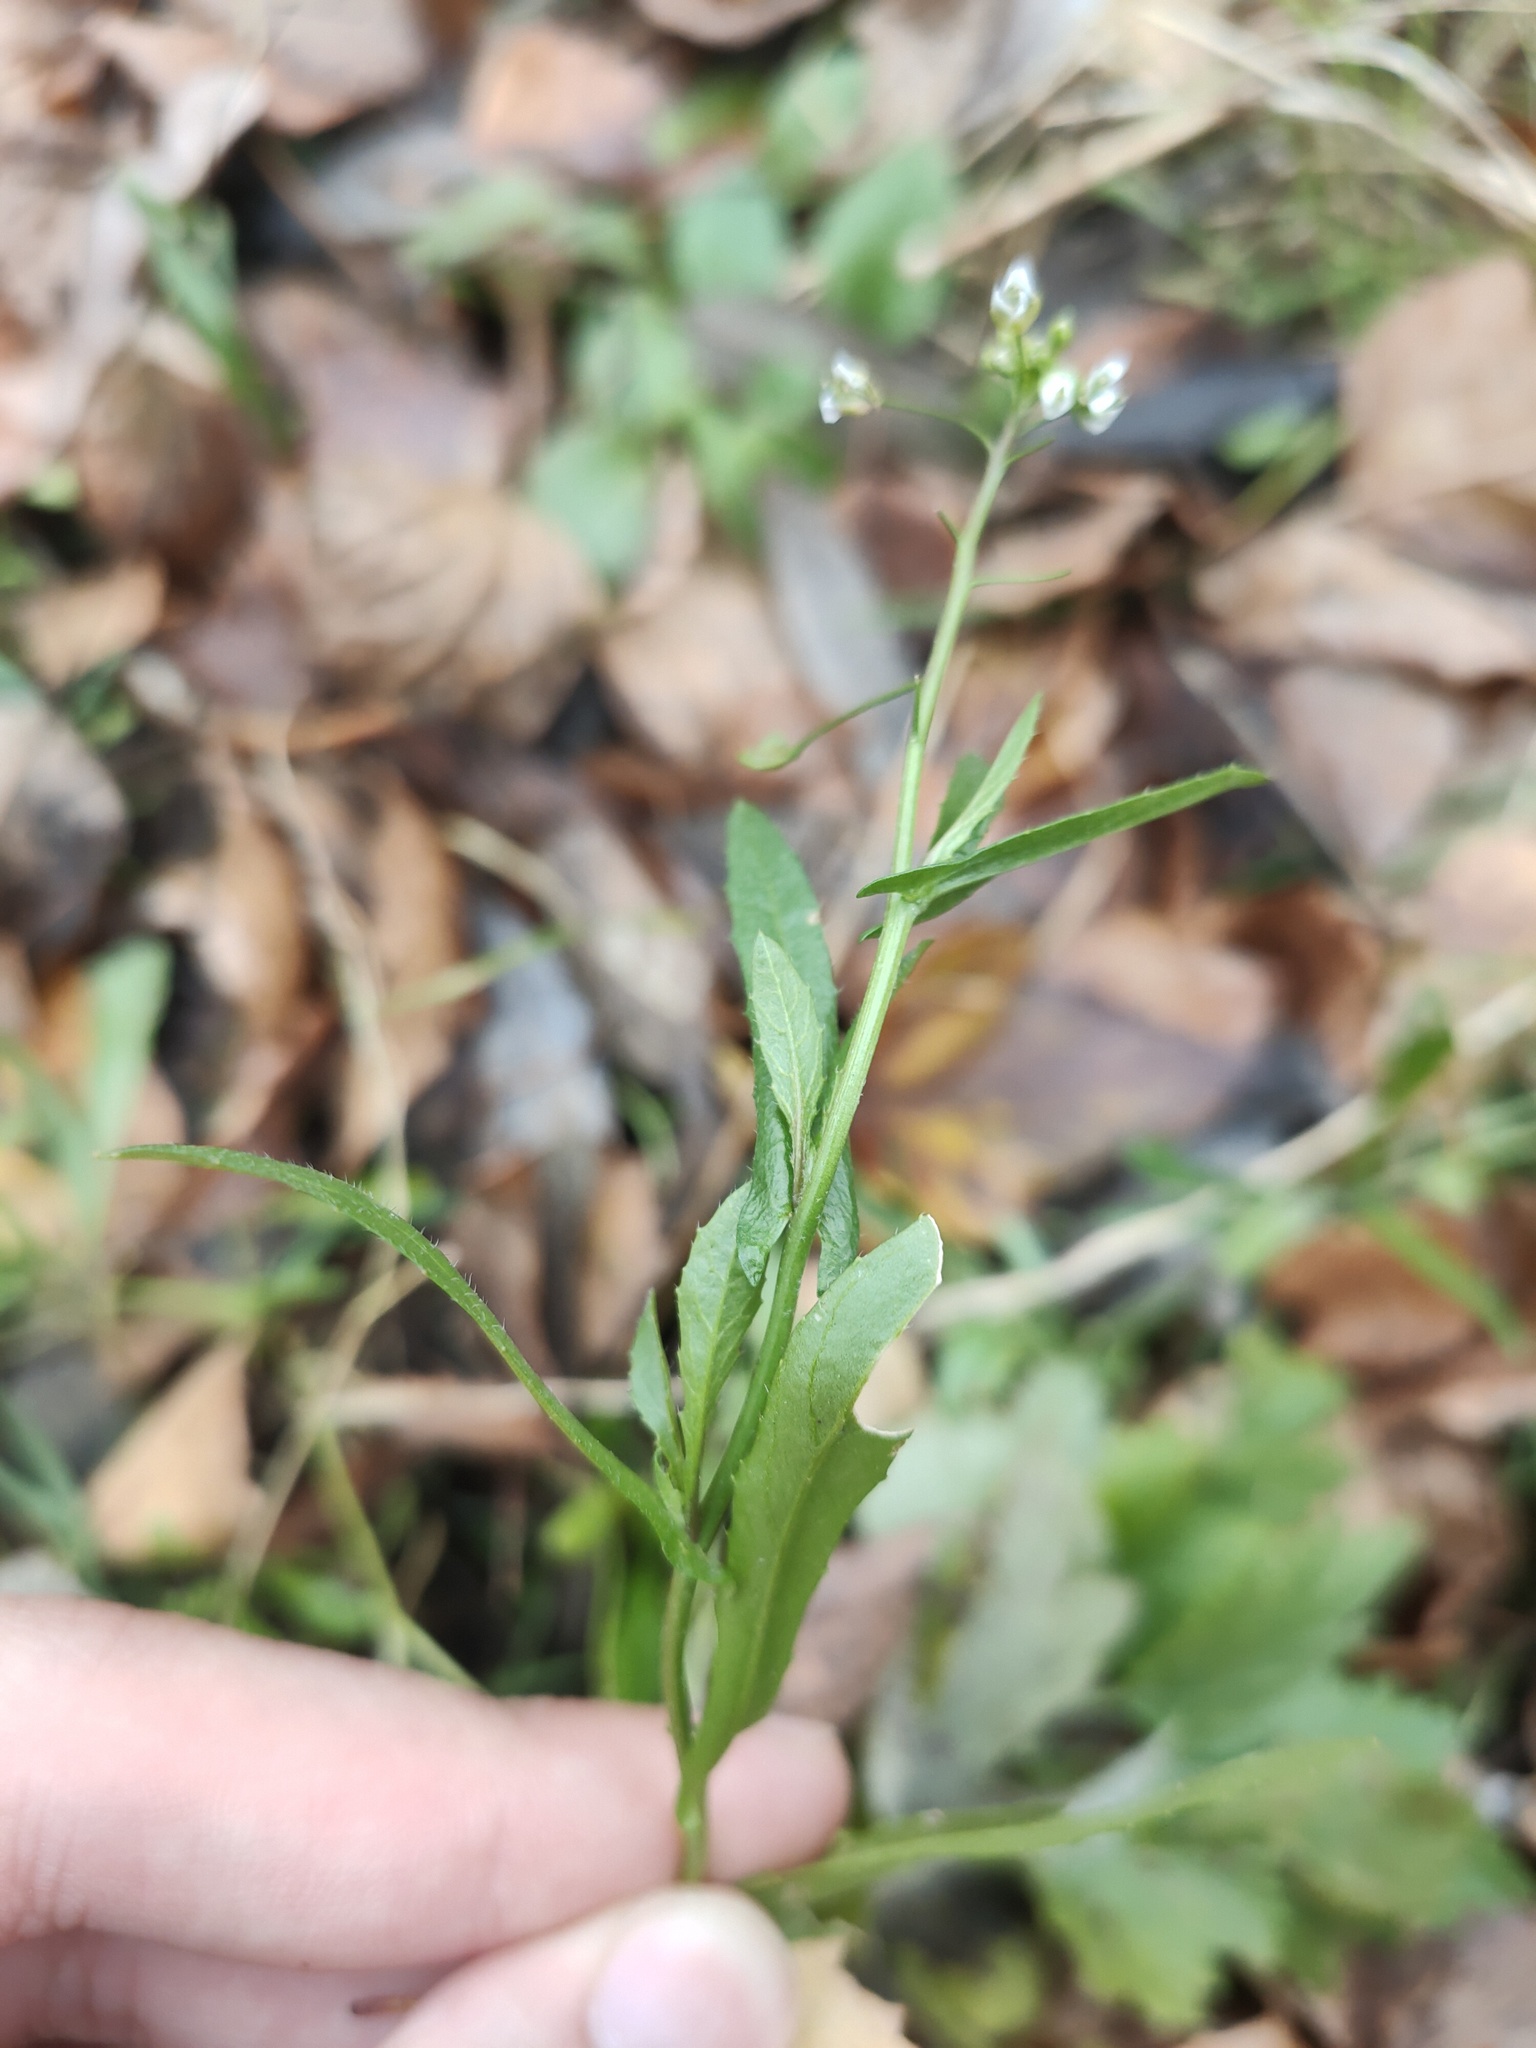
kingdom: Plantae
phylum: Tracheophyta
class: Magnoliopsida
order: Brassicales
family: Brassicaceae
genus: Capsella
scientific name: Capsella bursa-pastoris
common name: Shepherd's purse
